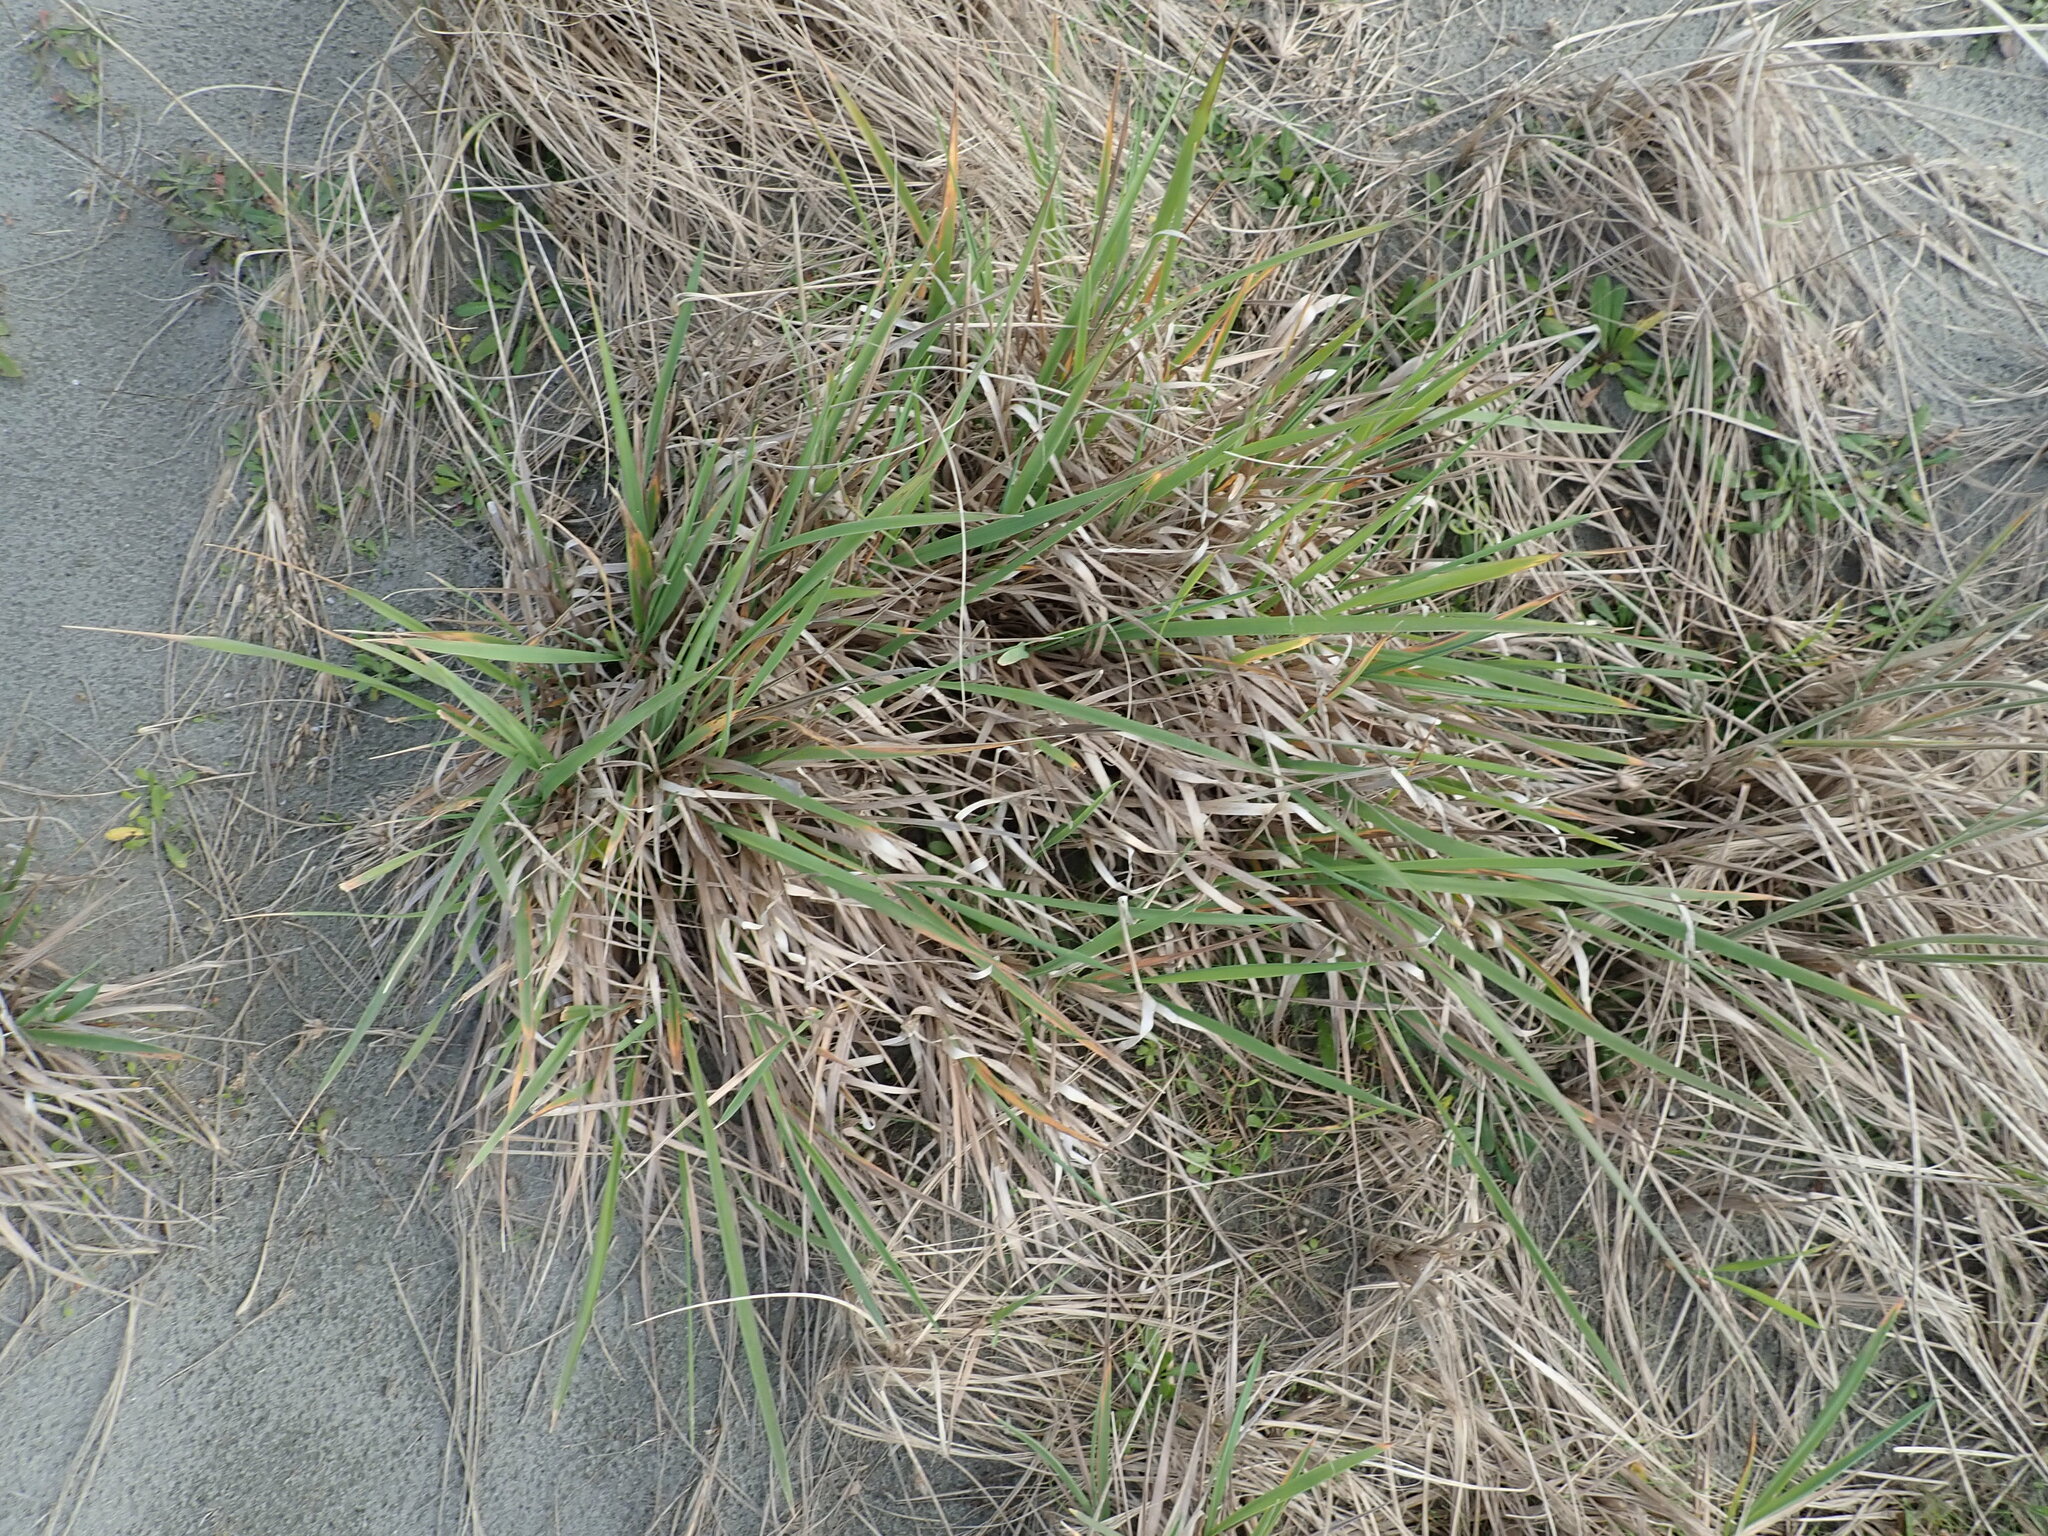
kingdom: Plantae
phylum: Tracheophyta
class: Liliopsida
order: Poales
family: Poaceae
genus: Lachnagrostis
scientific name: Lachnagrostis billardierei
